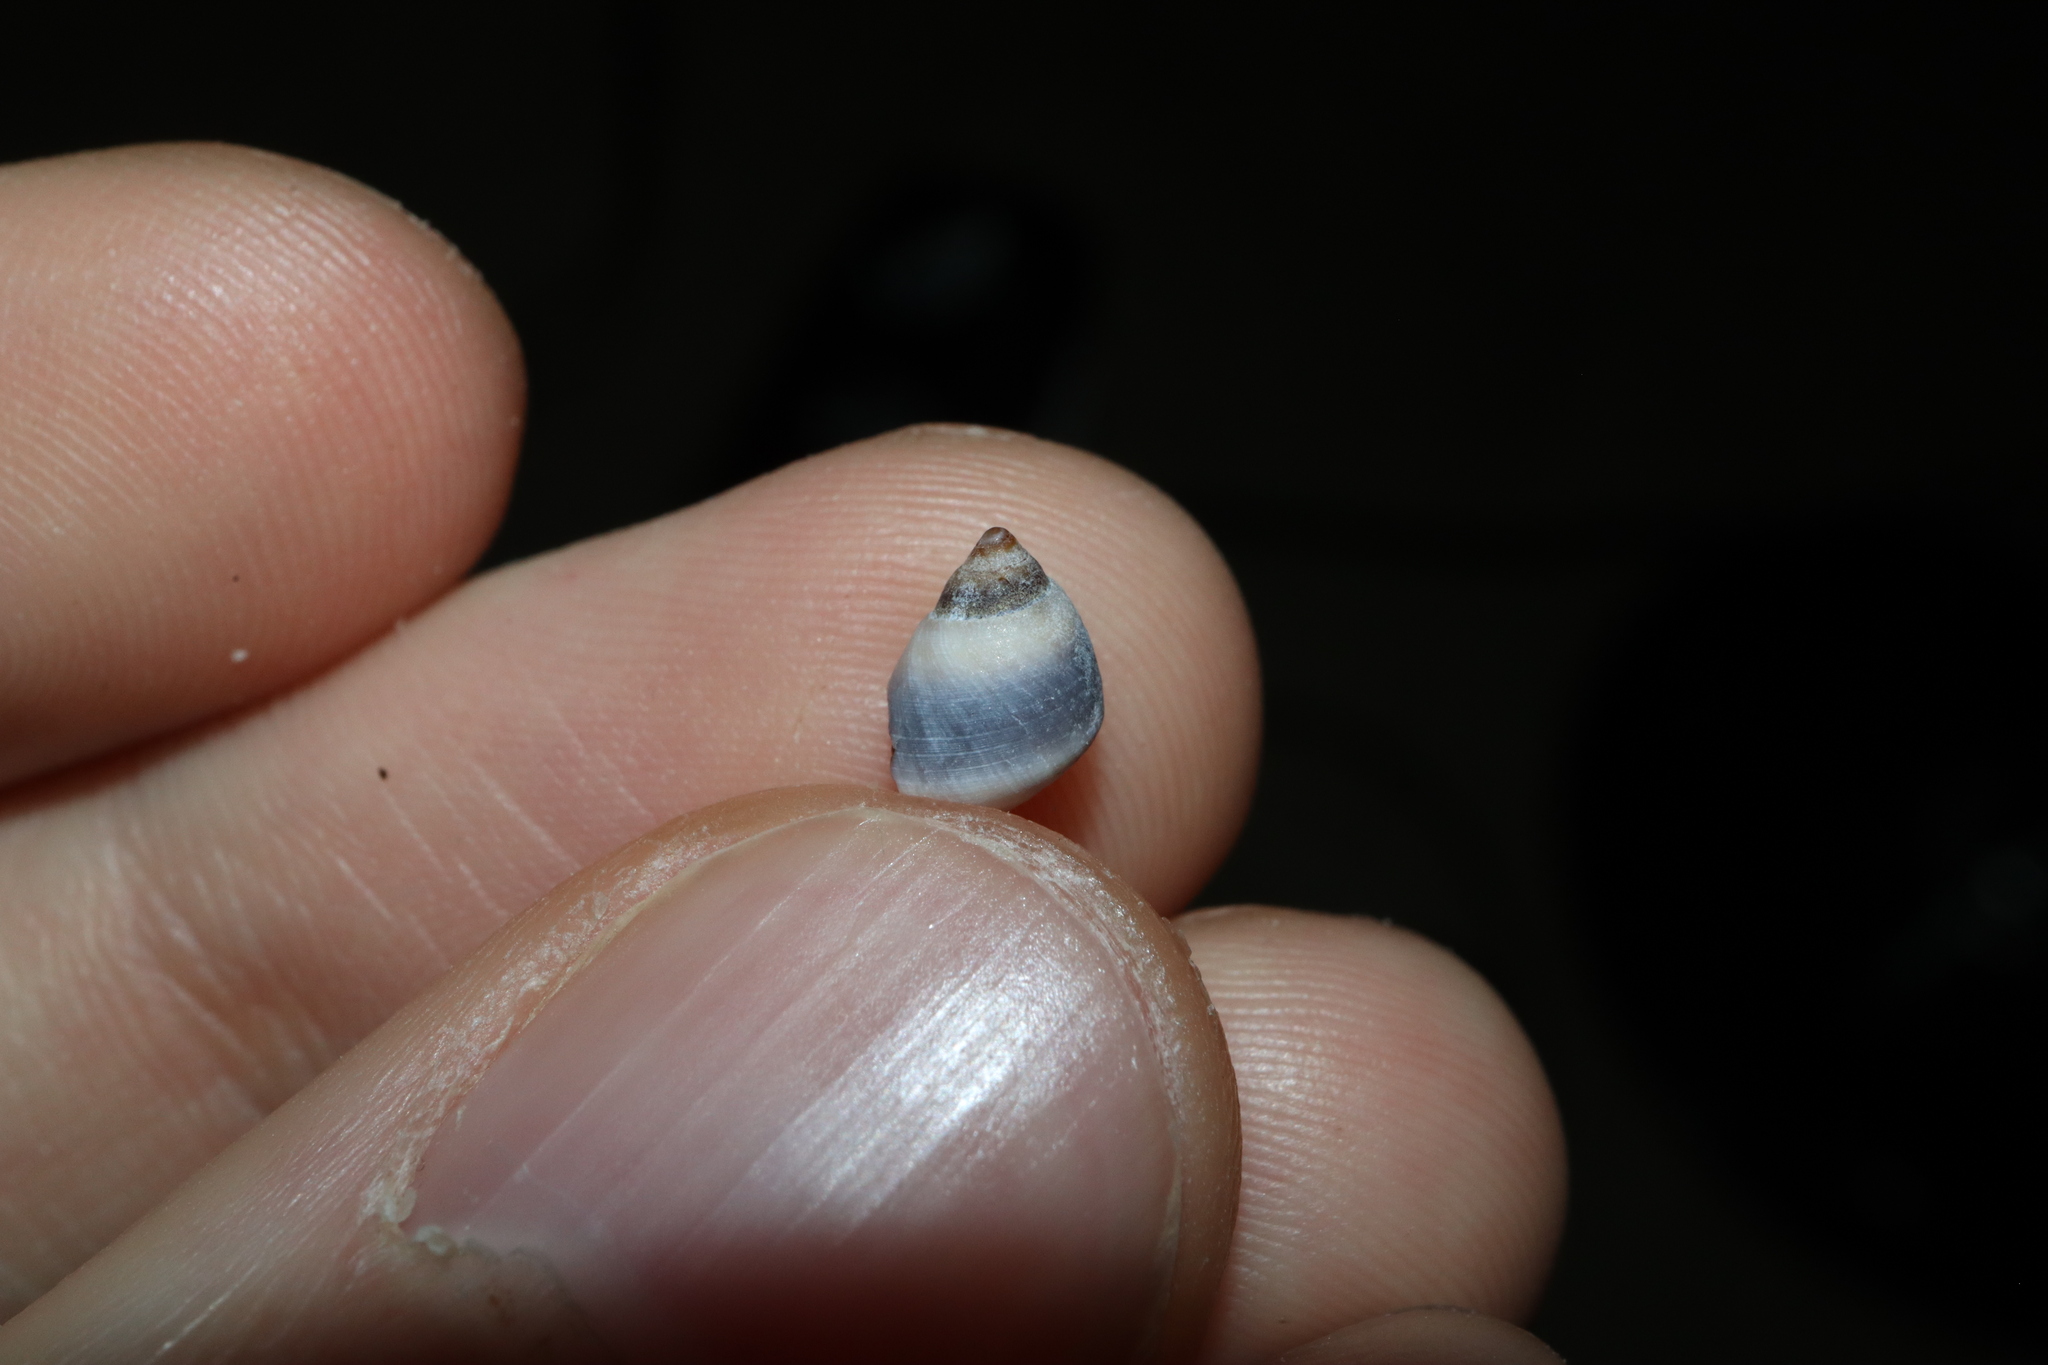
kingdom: Animalia
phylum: Mollusca
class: Gastropoda
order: Littorinimorpha
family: Littorinidae
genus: Austrolittorina
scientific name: Austrolittorina unifasciata
